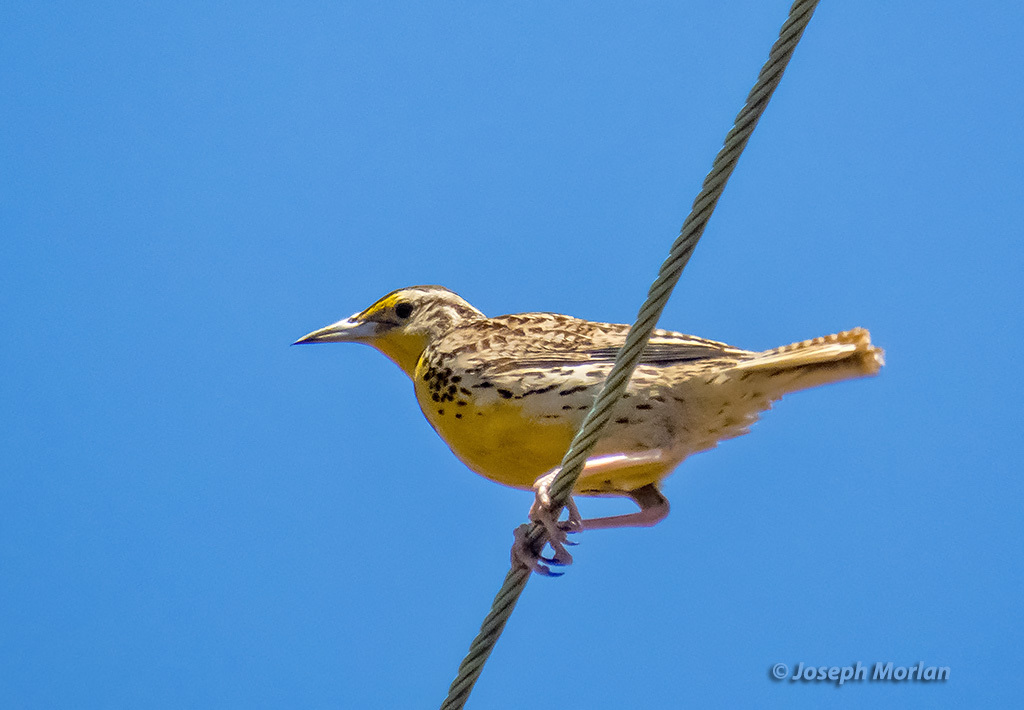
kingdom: Animalia
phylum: Chordata
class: Aves
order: Passeriformes
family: Icteridae
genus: Sturnella
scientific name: Sturnella neglecta
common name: Western meadowlark
